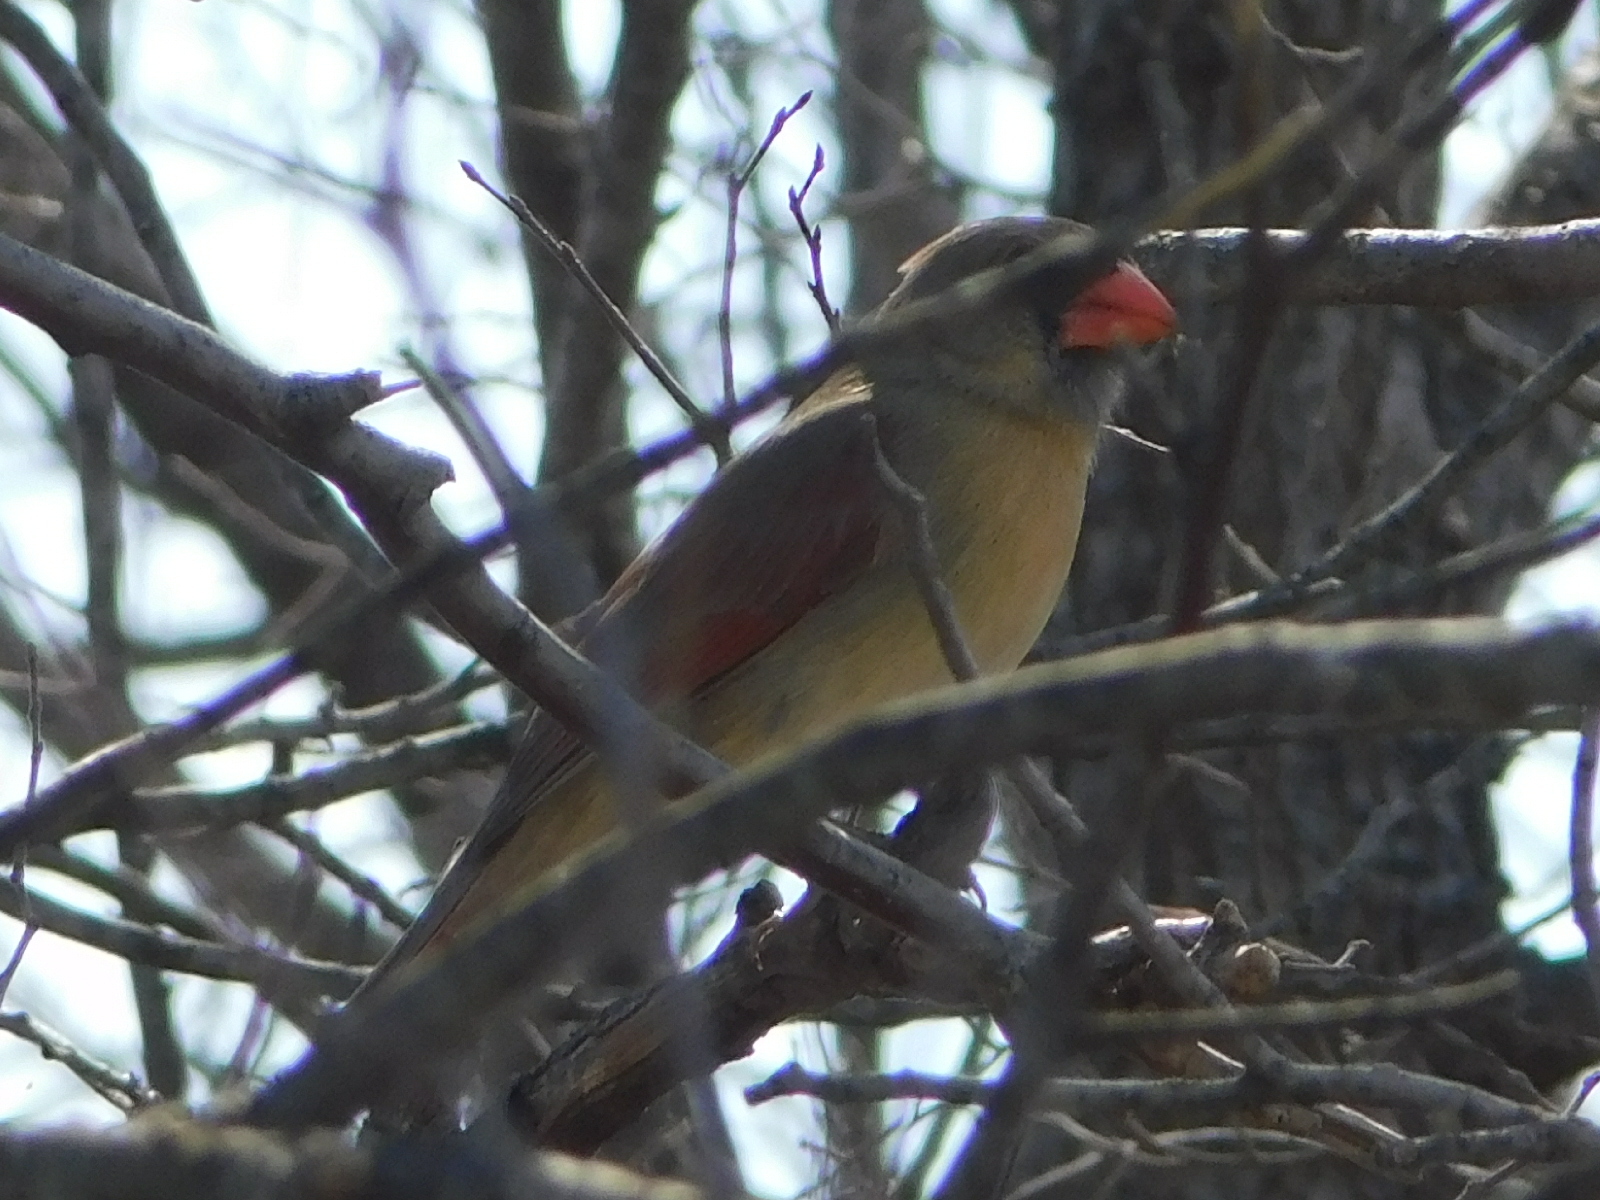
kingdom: Animalia
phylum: Chordata
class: Aves
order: Passeriformes
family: Cardinalidae
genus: Cardinalis
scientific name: Cardinalis cardinalis
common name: Northern cardinal
